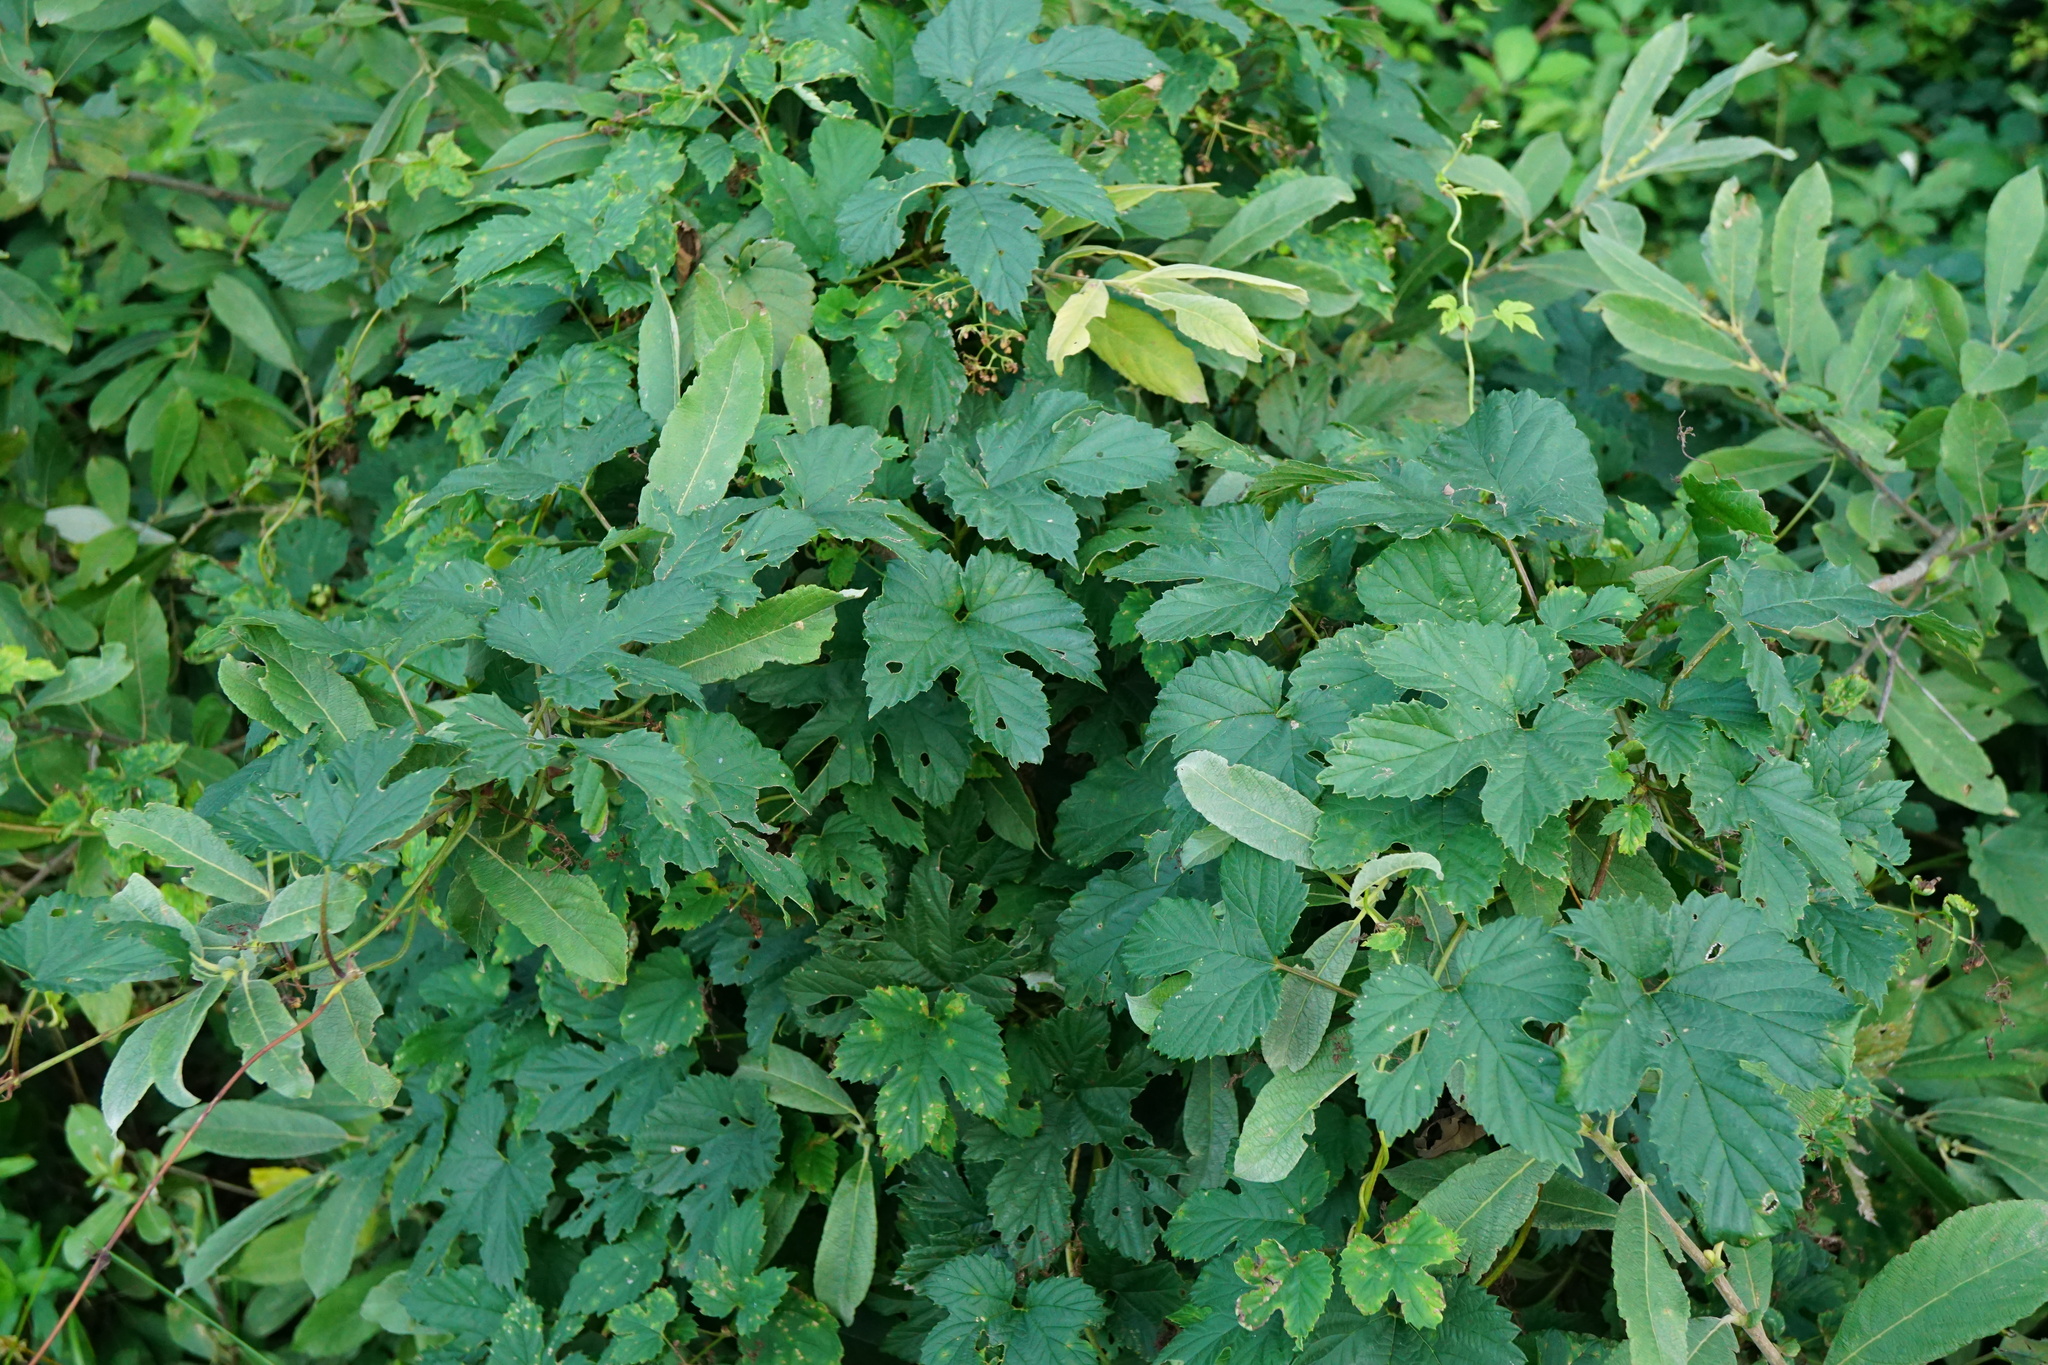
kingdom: Plantae
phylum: Tracheophyta
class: Magnoliopsida
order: Rosales
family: Cannabaceae
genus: Humulus
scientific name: Humulus lupulus
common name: Hop
